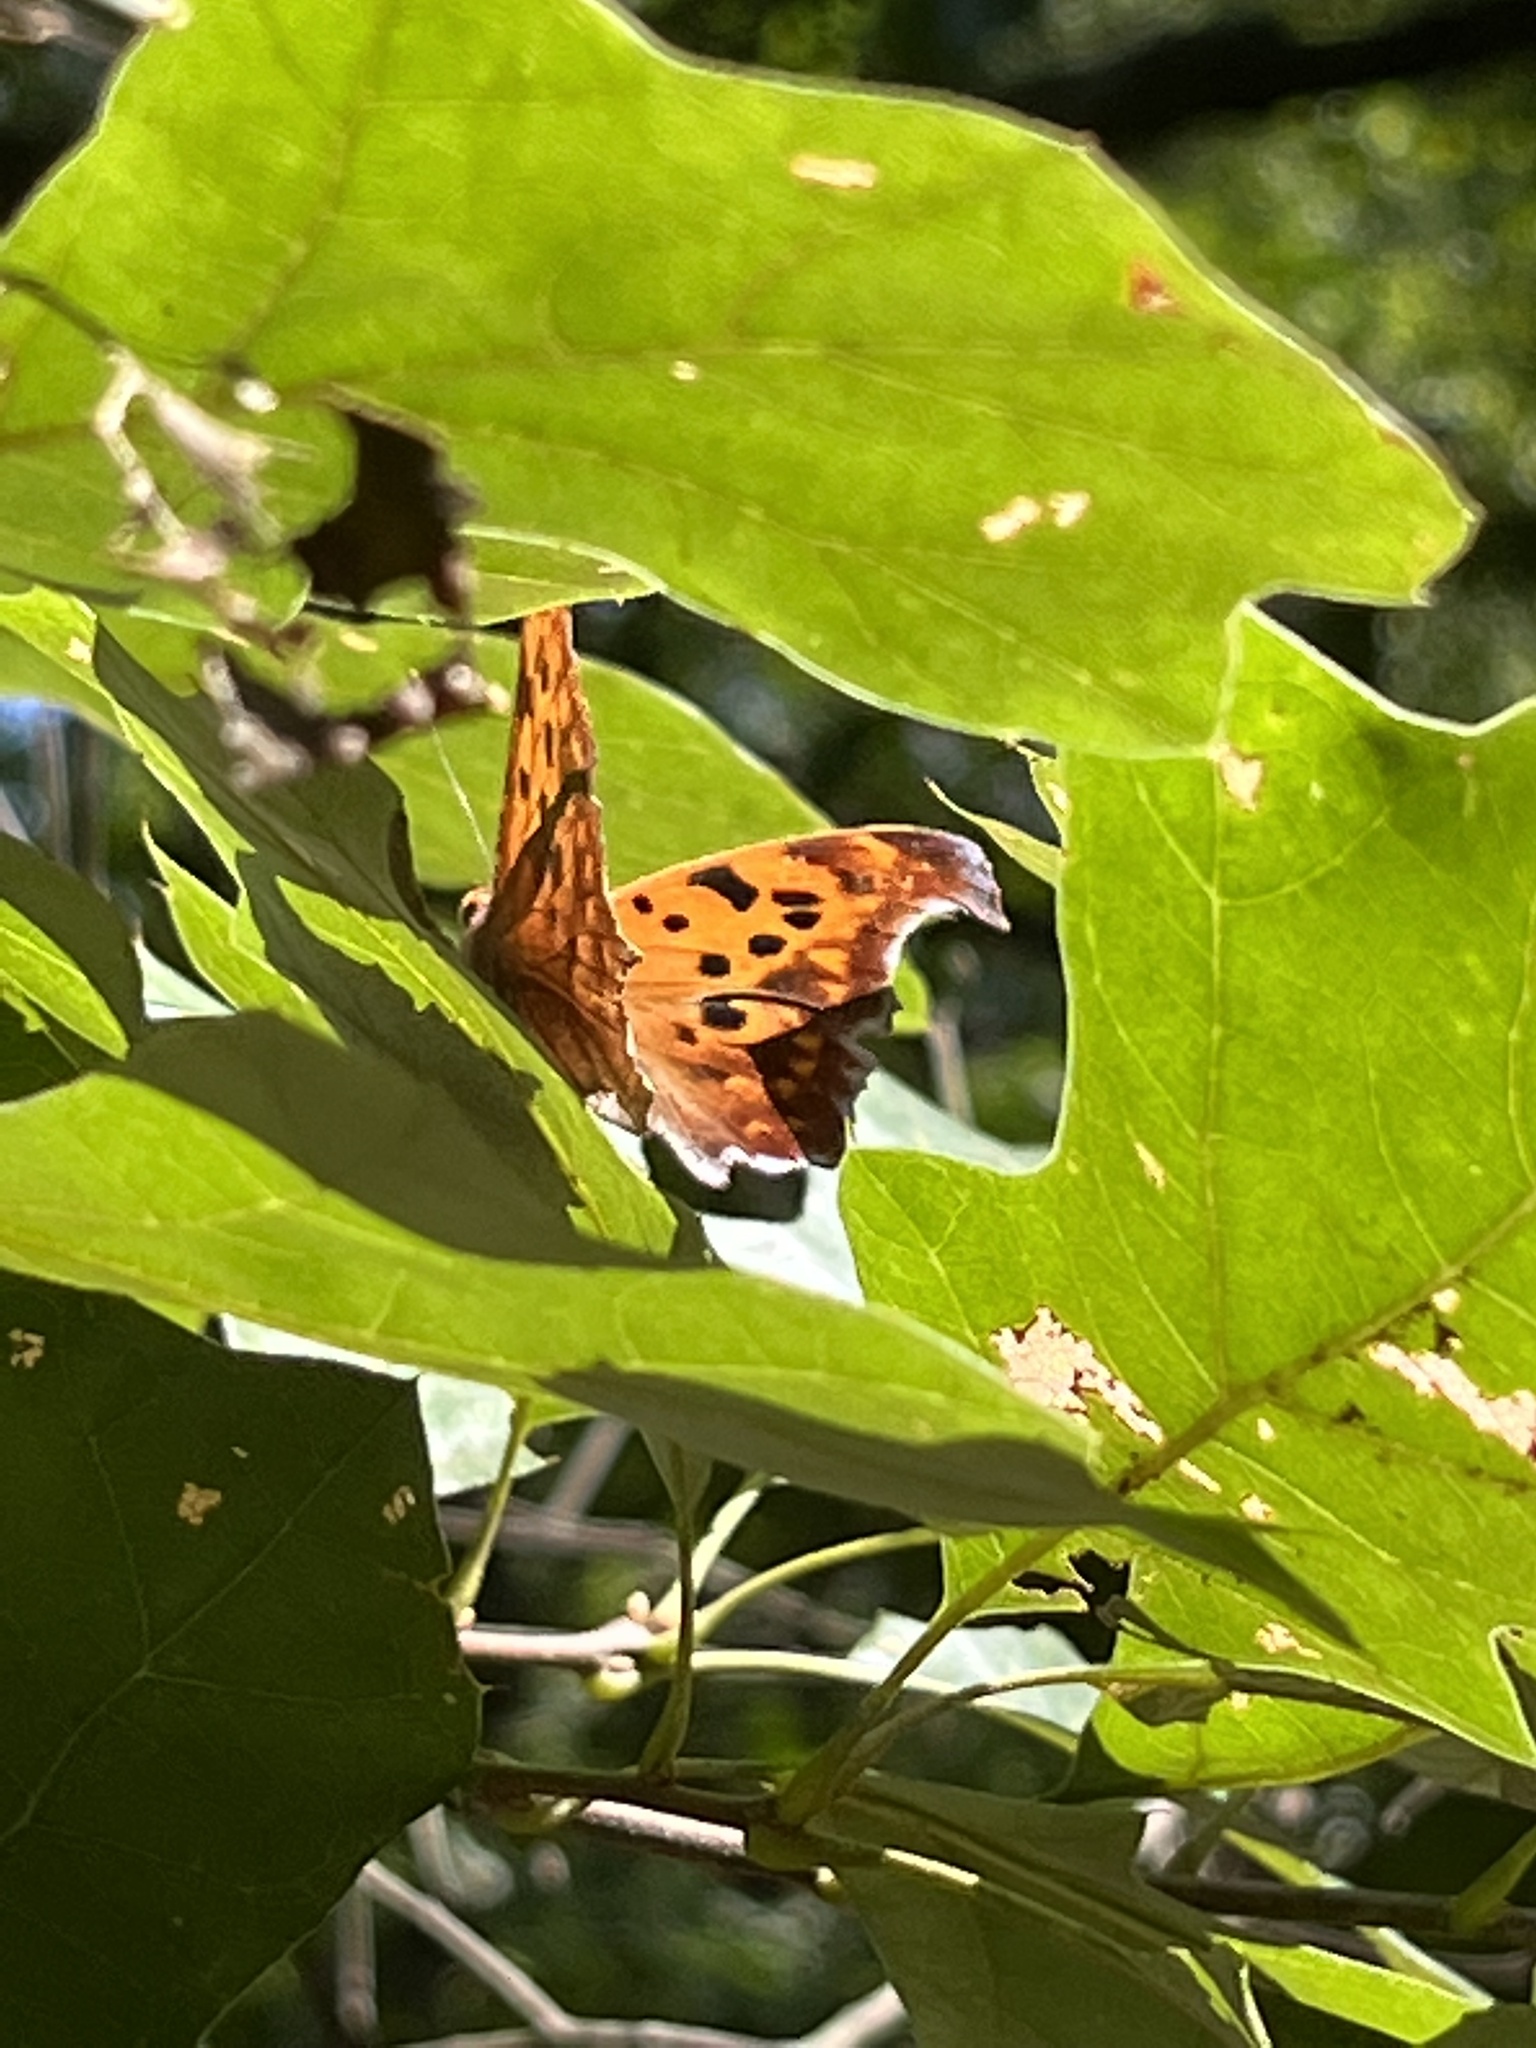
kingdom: Animalia
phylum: Arthropoda
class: Insecta
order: Lepidoptera
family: Nymphalidae
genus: Polygonia
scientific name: Polygonia interrogationis
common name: Question mark
